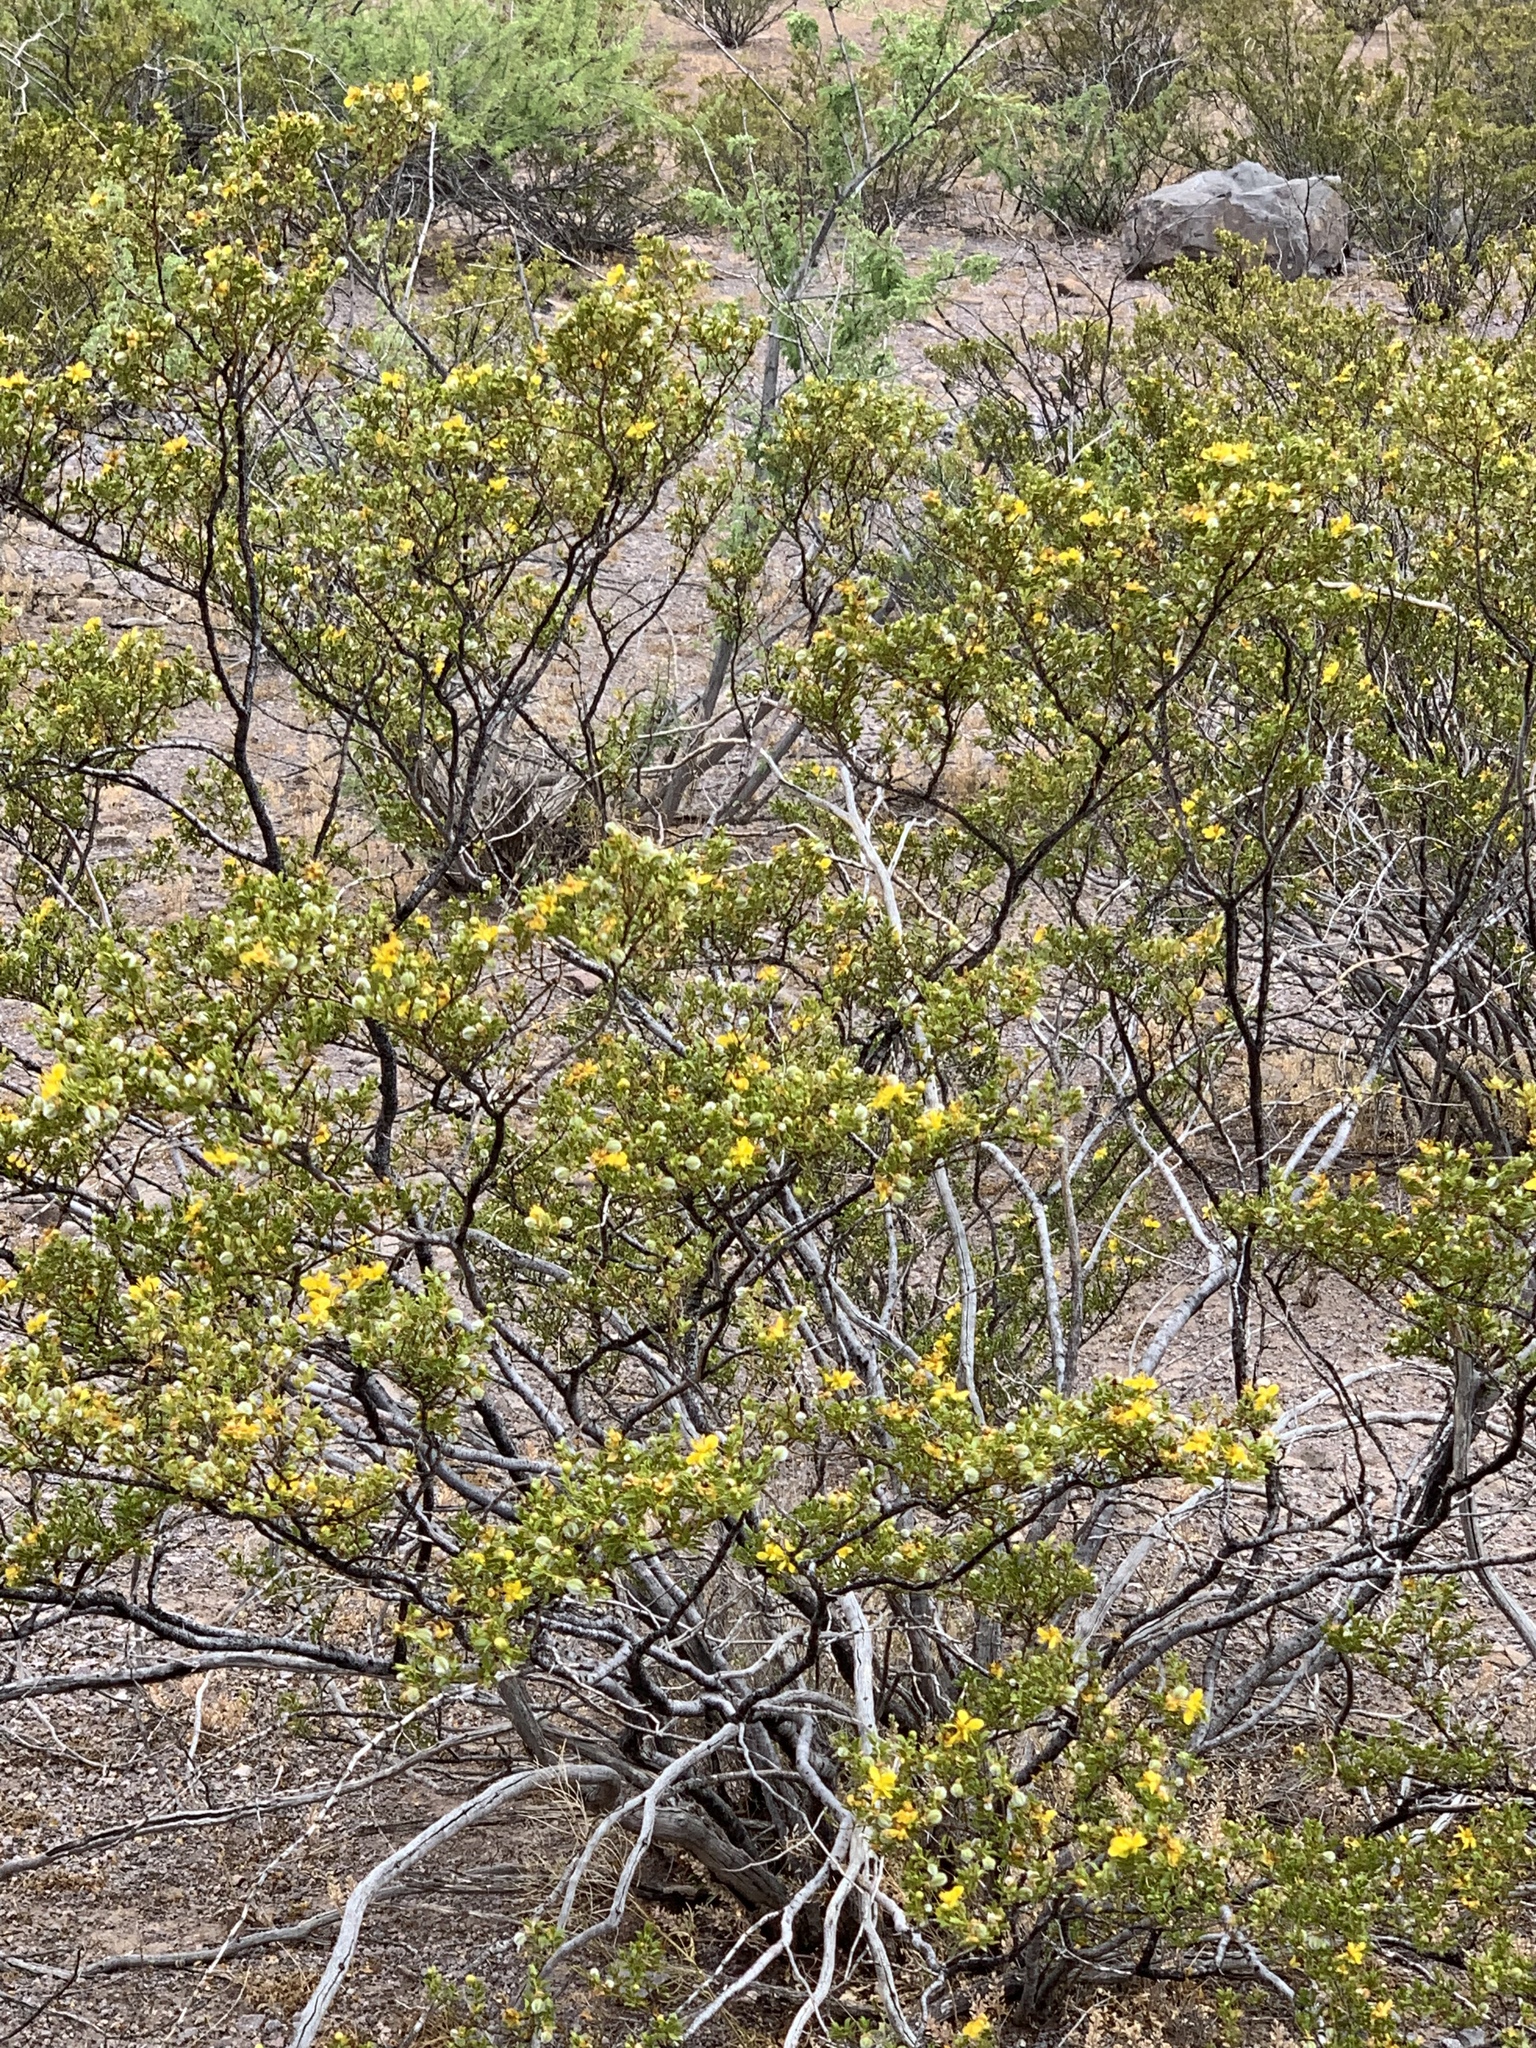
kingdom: Plantae
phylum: Tracheophyta
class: Magnoliopsida
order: Zygophyllales
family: Zygophyllaceae
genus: Larrea
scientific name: Larrea tridentata
